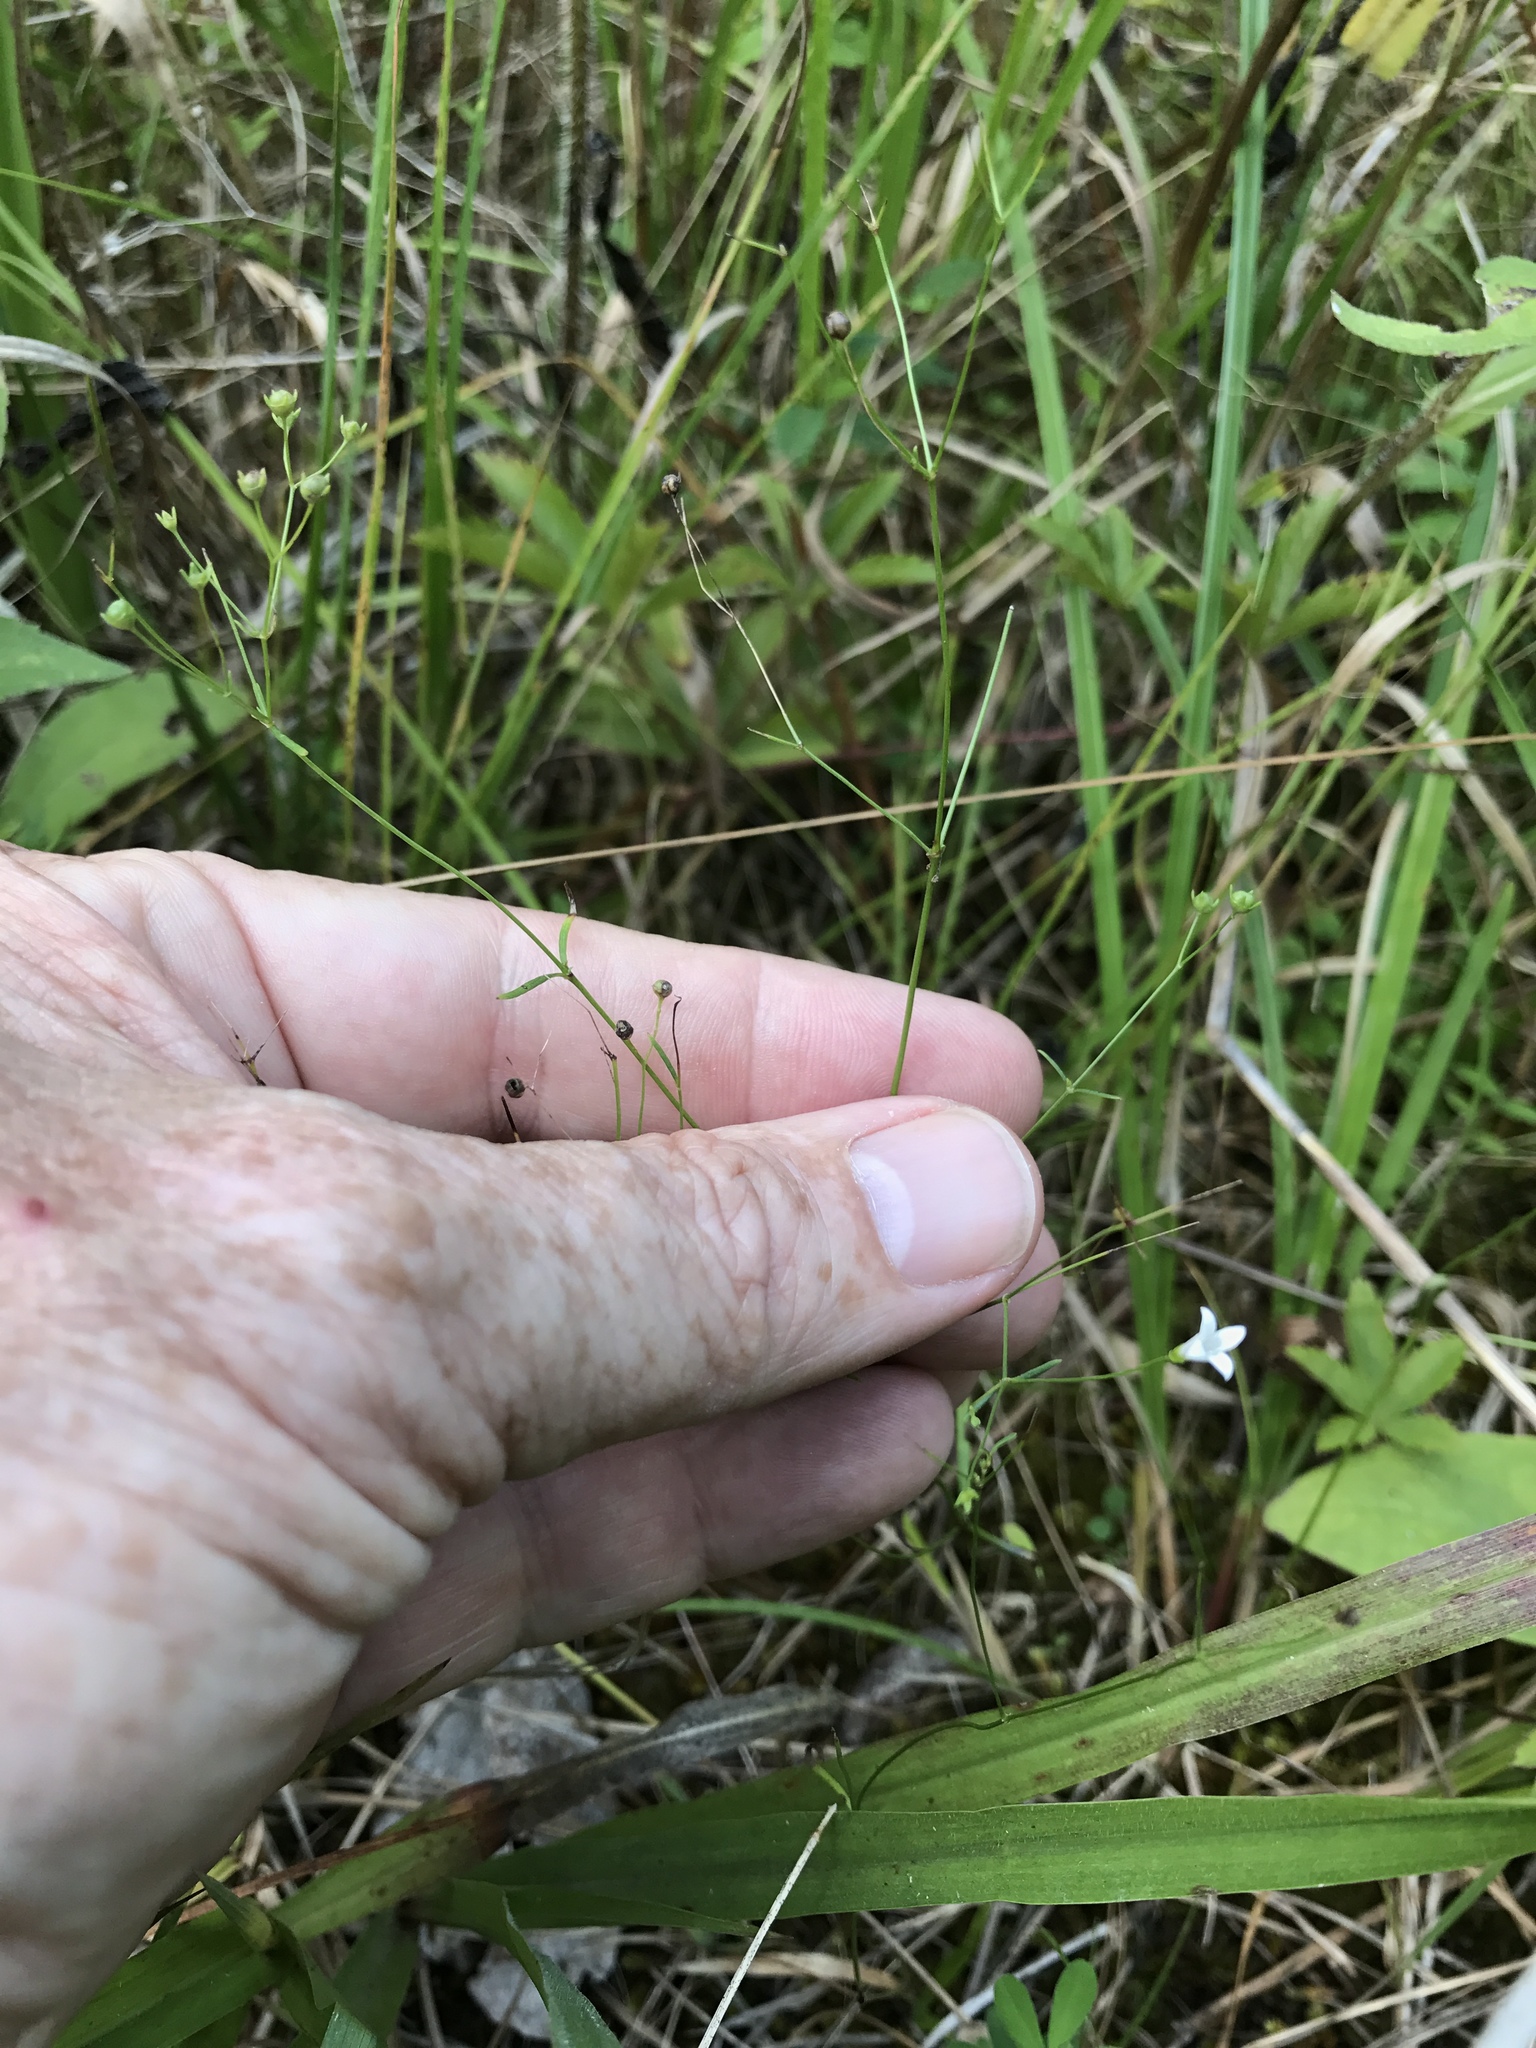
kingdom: Plantae
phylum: Tracheophyta
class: Magnoliopsida
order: Gentianales
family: Rubiaceae
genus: Houstonia
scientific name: Houstonia longifolia
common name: Long-leaved bluets
